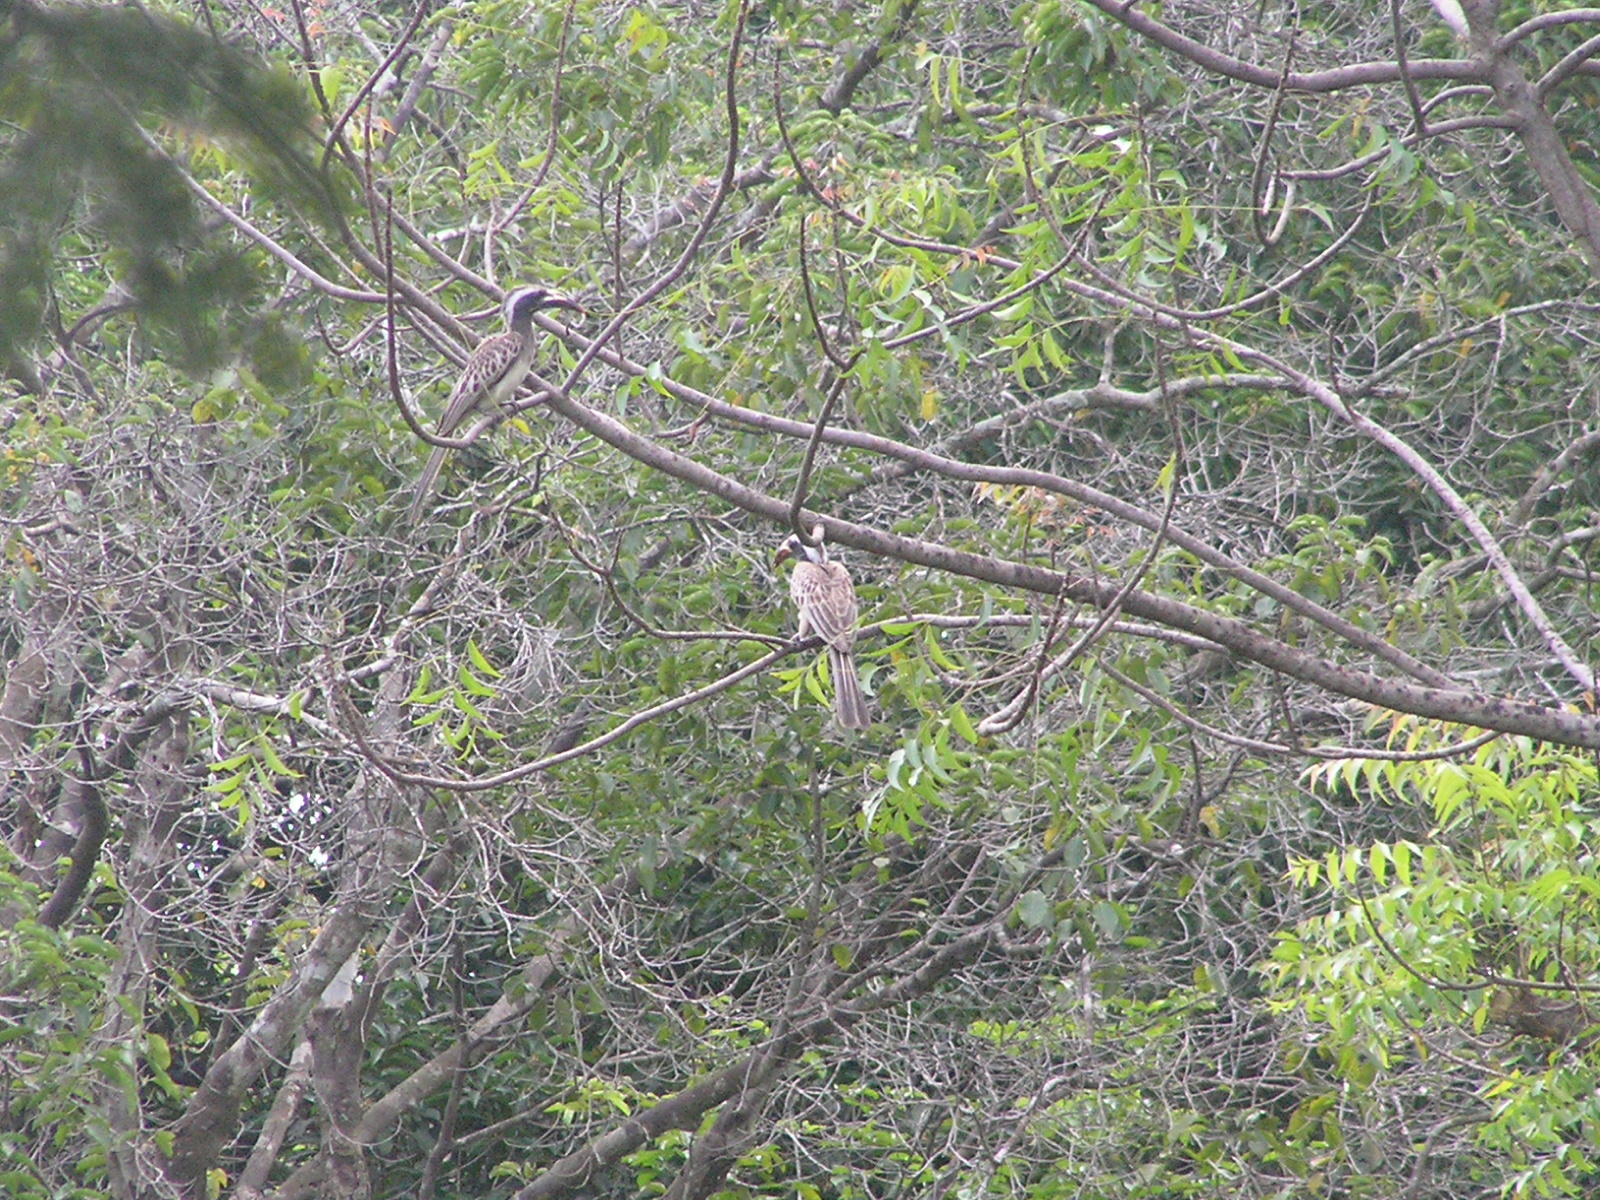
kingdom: Animalia
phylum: Chordata
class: Aves
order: Bucerotiformes
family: Bucerotidae
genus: Lophoceros
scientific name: Lophoceros nasutus
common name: African grey hornbill
